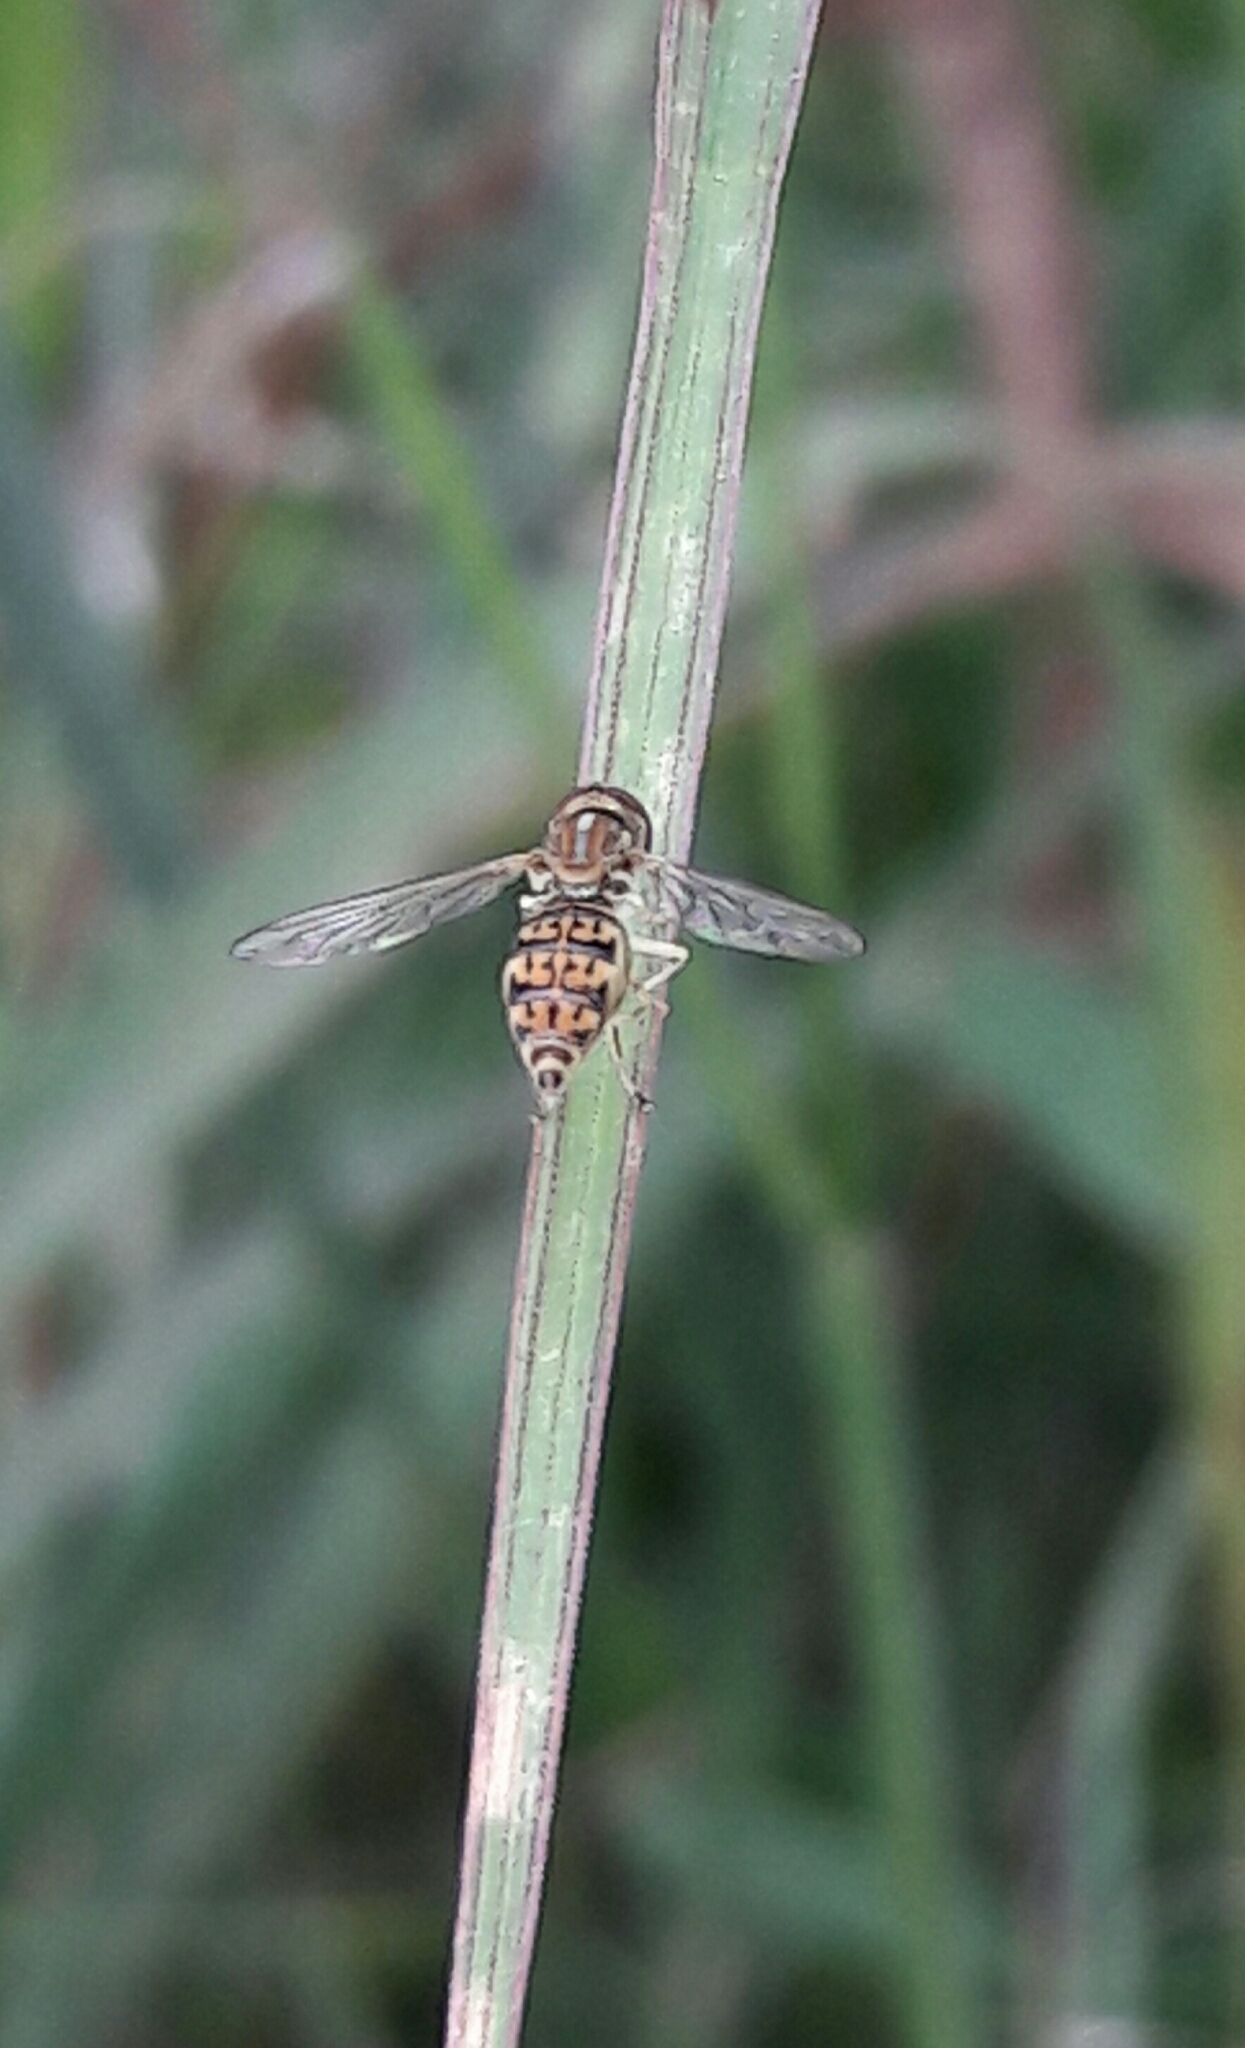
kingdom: Animalia
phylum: Arthropoda
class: Insecta
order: Diptera
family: Syrphidae
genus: Toxomerus
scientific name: Toxomerus
